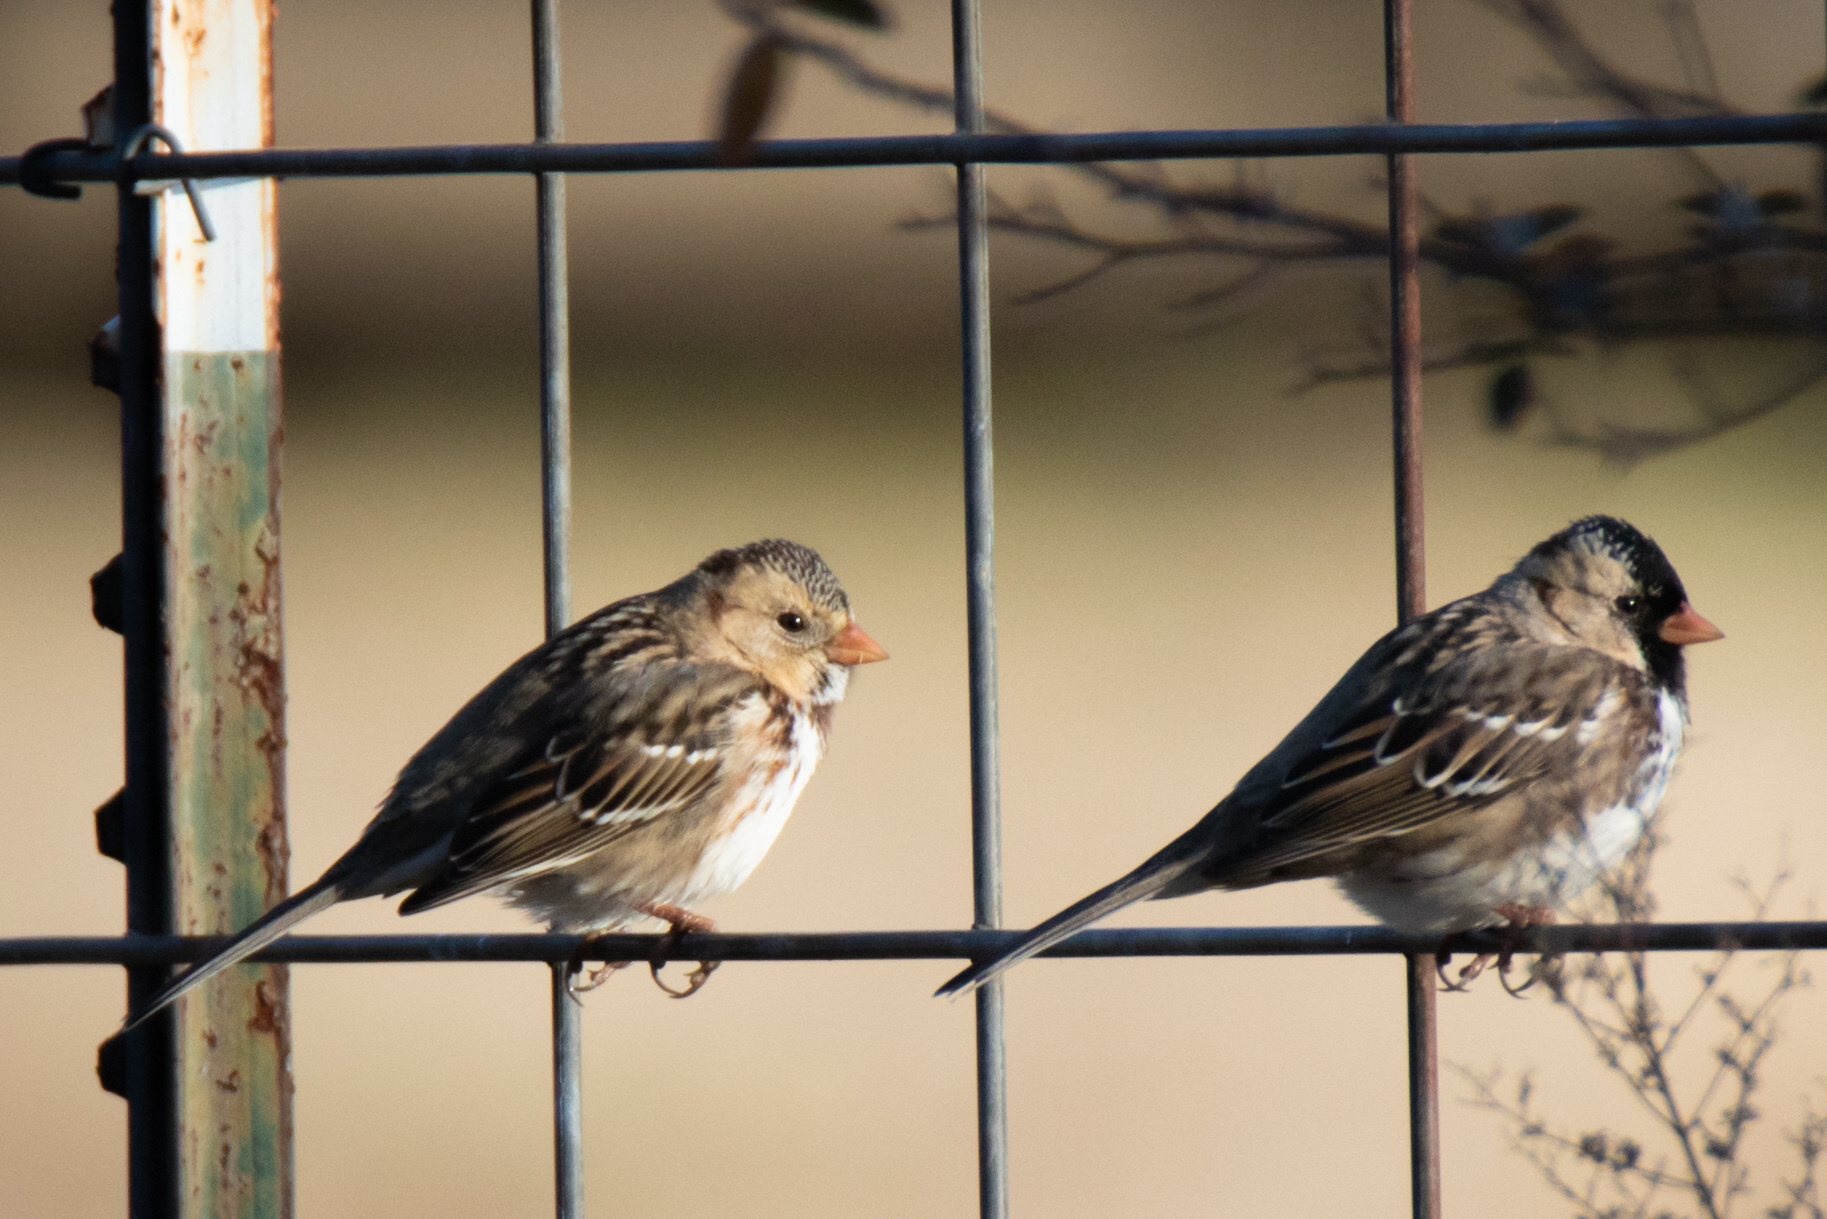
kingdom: Animalia
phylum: Chordata
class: Aves
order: Passeriformes
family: Passerellidae
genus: Zonotrichia
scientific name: Zonotrichia querula
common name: Harris's sparrow
